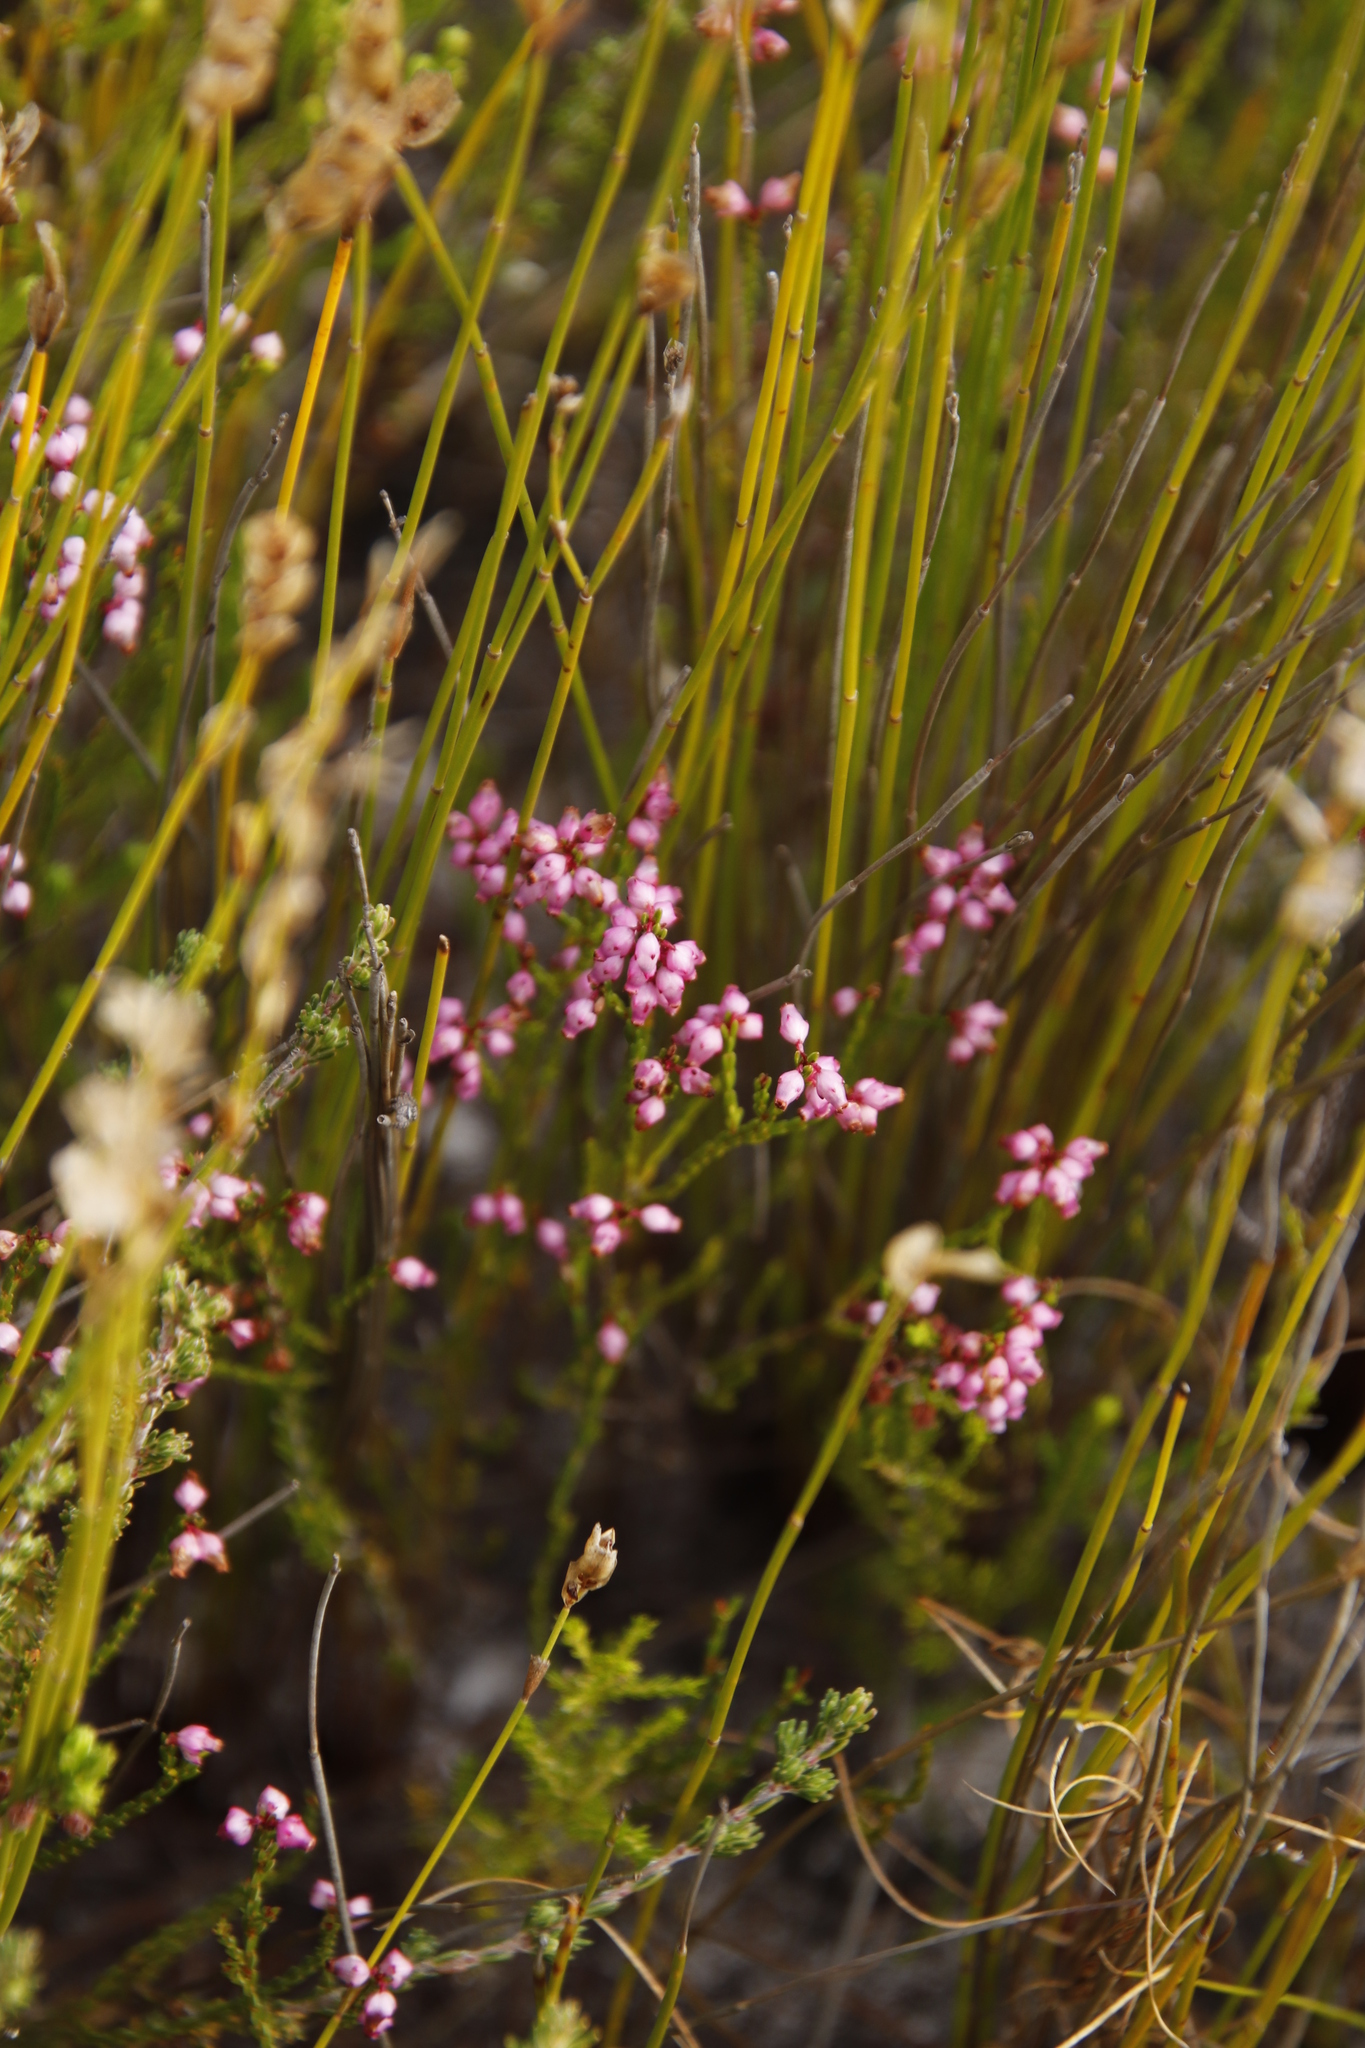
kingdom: Plantae
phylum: Tracheophyta
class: Magnoliopsida
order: Ericales
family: Ericaceae
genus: Erica
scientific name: Erica rhopalantha
